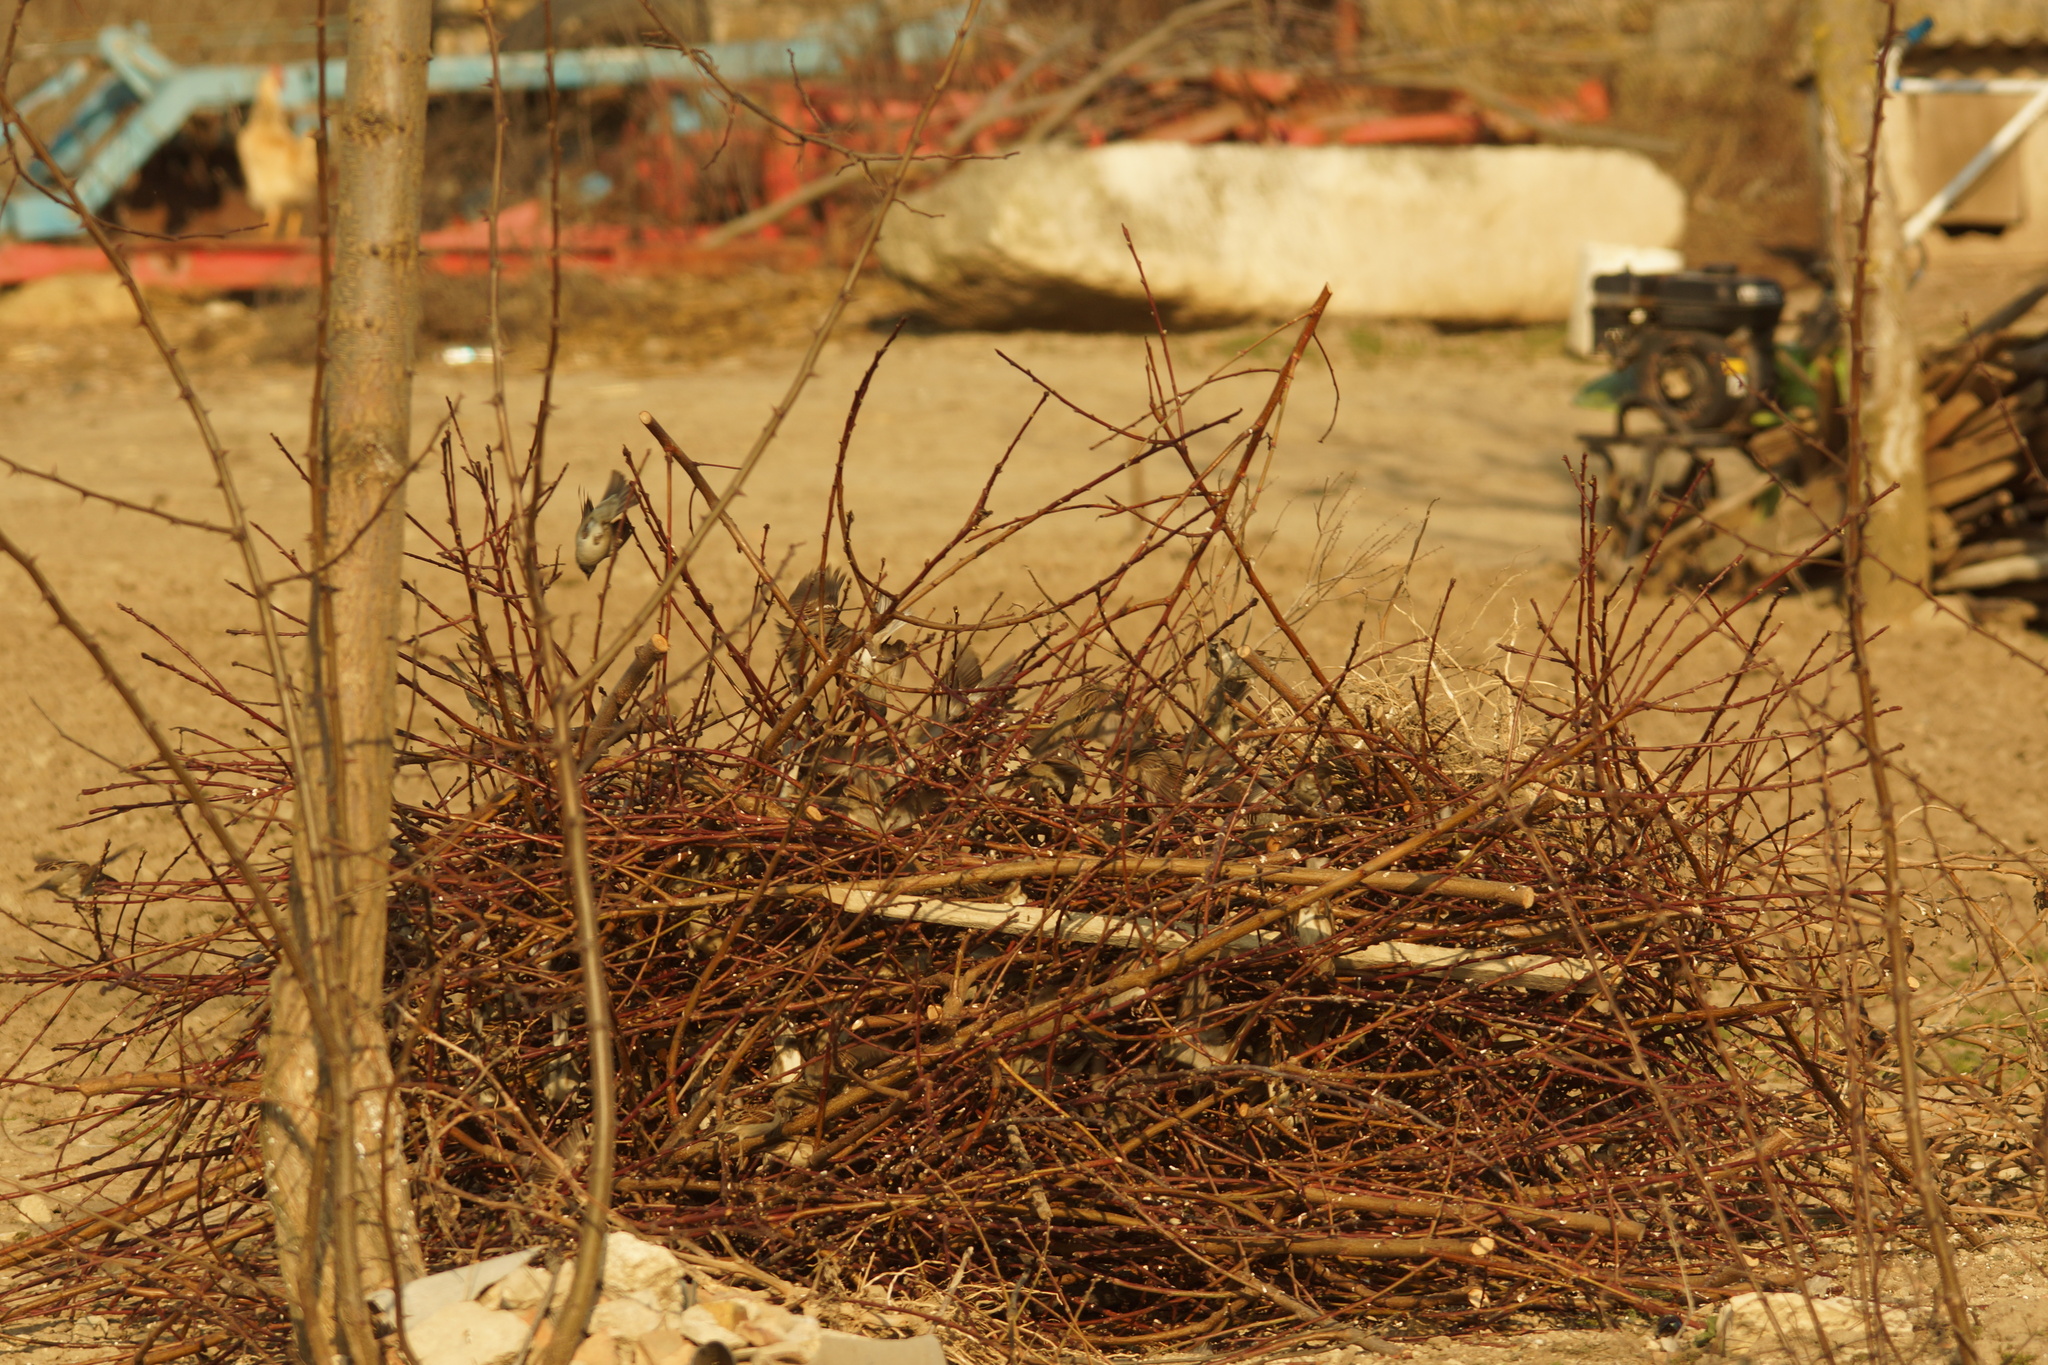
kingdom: Animalia
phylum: Chordata
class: Aves
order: Passeriformes
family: Passeridae
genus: Passer
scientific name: Passer domesticus
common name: House sparrow
